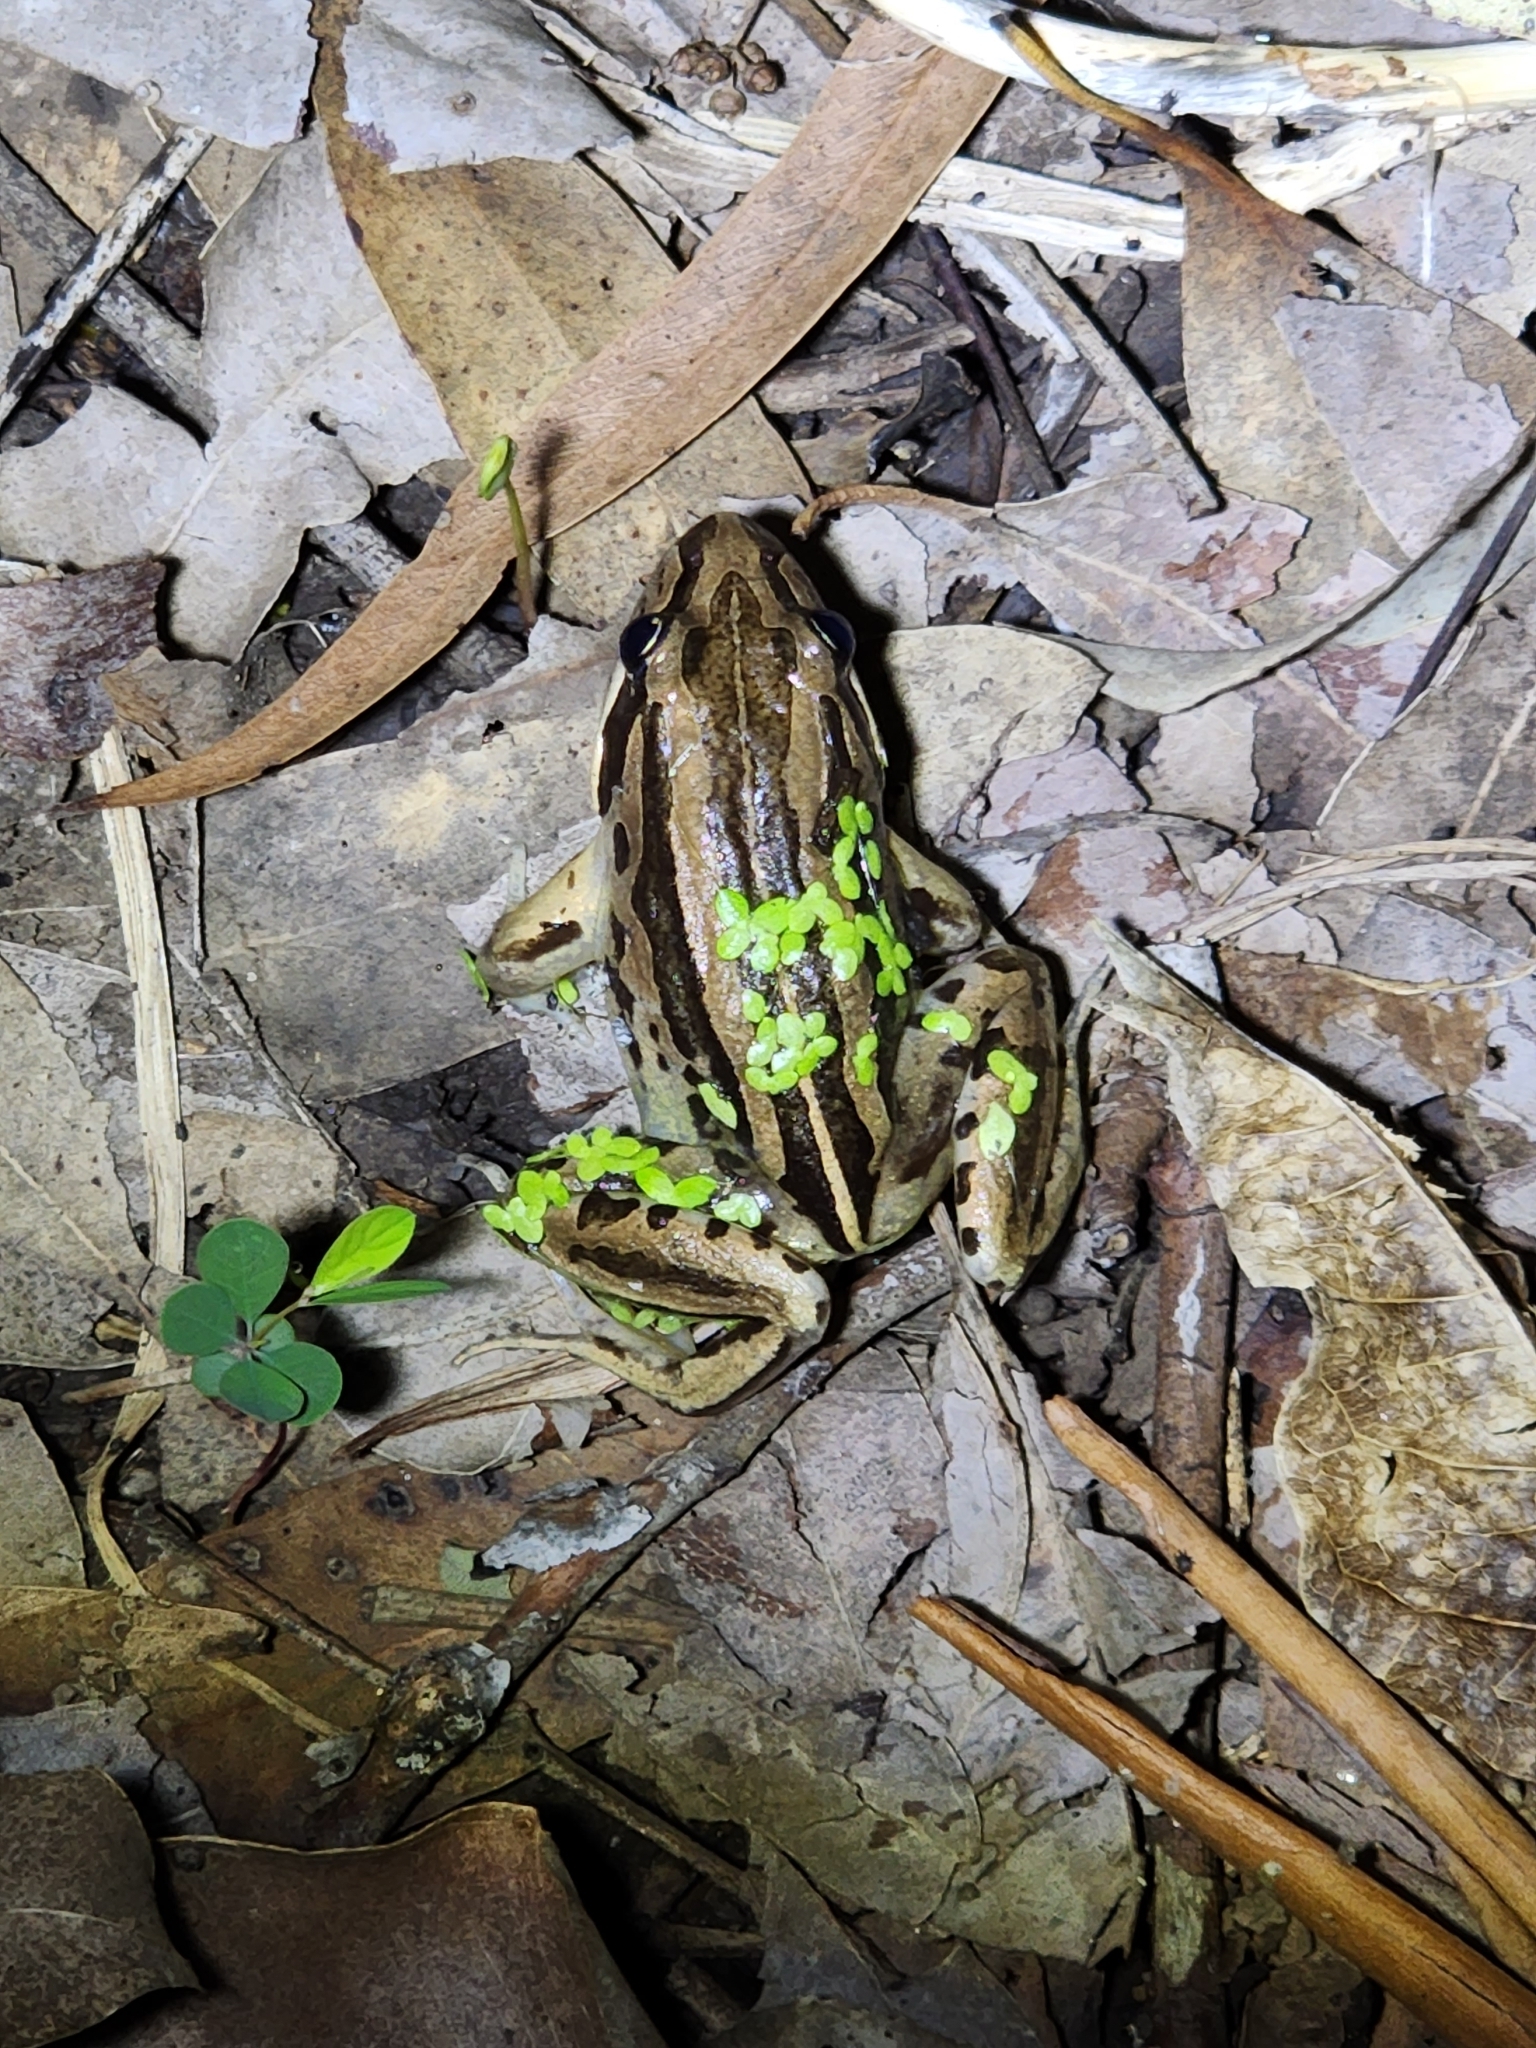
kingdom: Animalia
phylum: Chordata
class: Amphibia
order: Anura
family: Limnodynastidae
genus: Limnodynastes
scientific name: Limnodynastes peronii
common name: Brown frog
